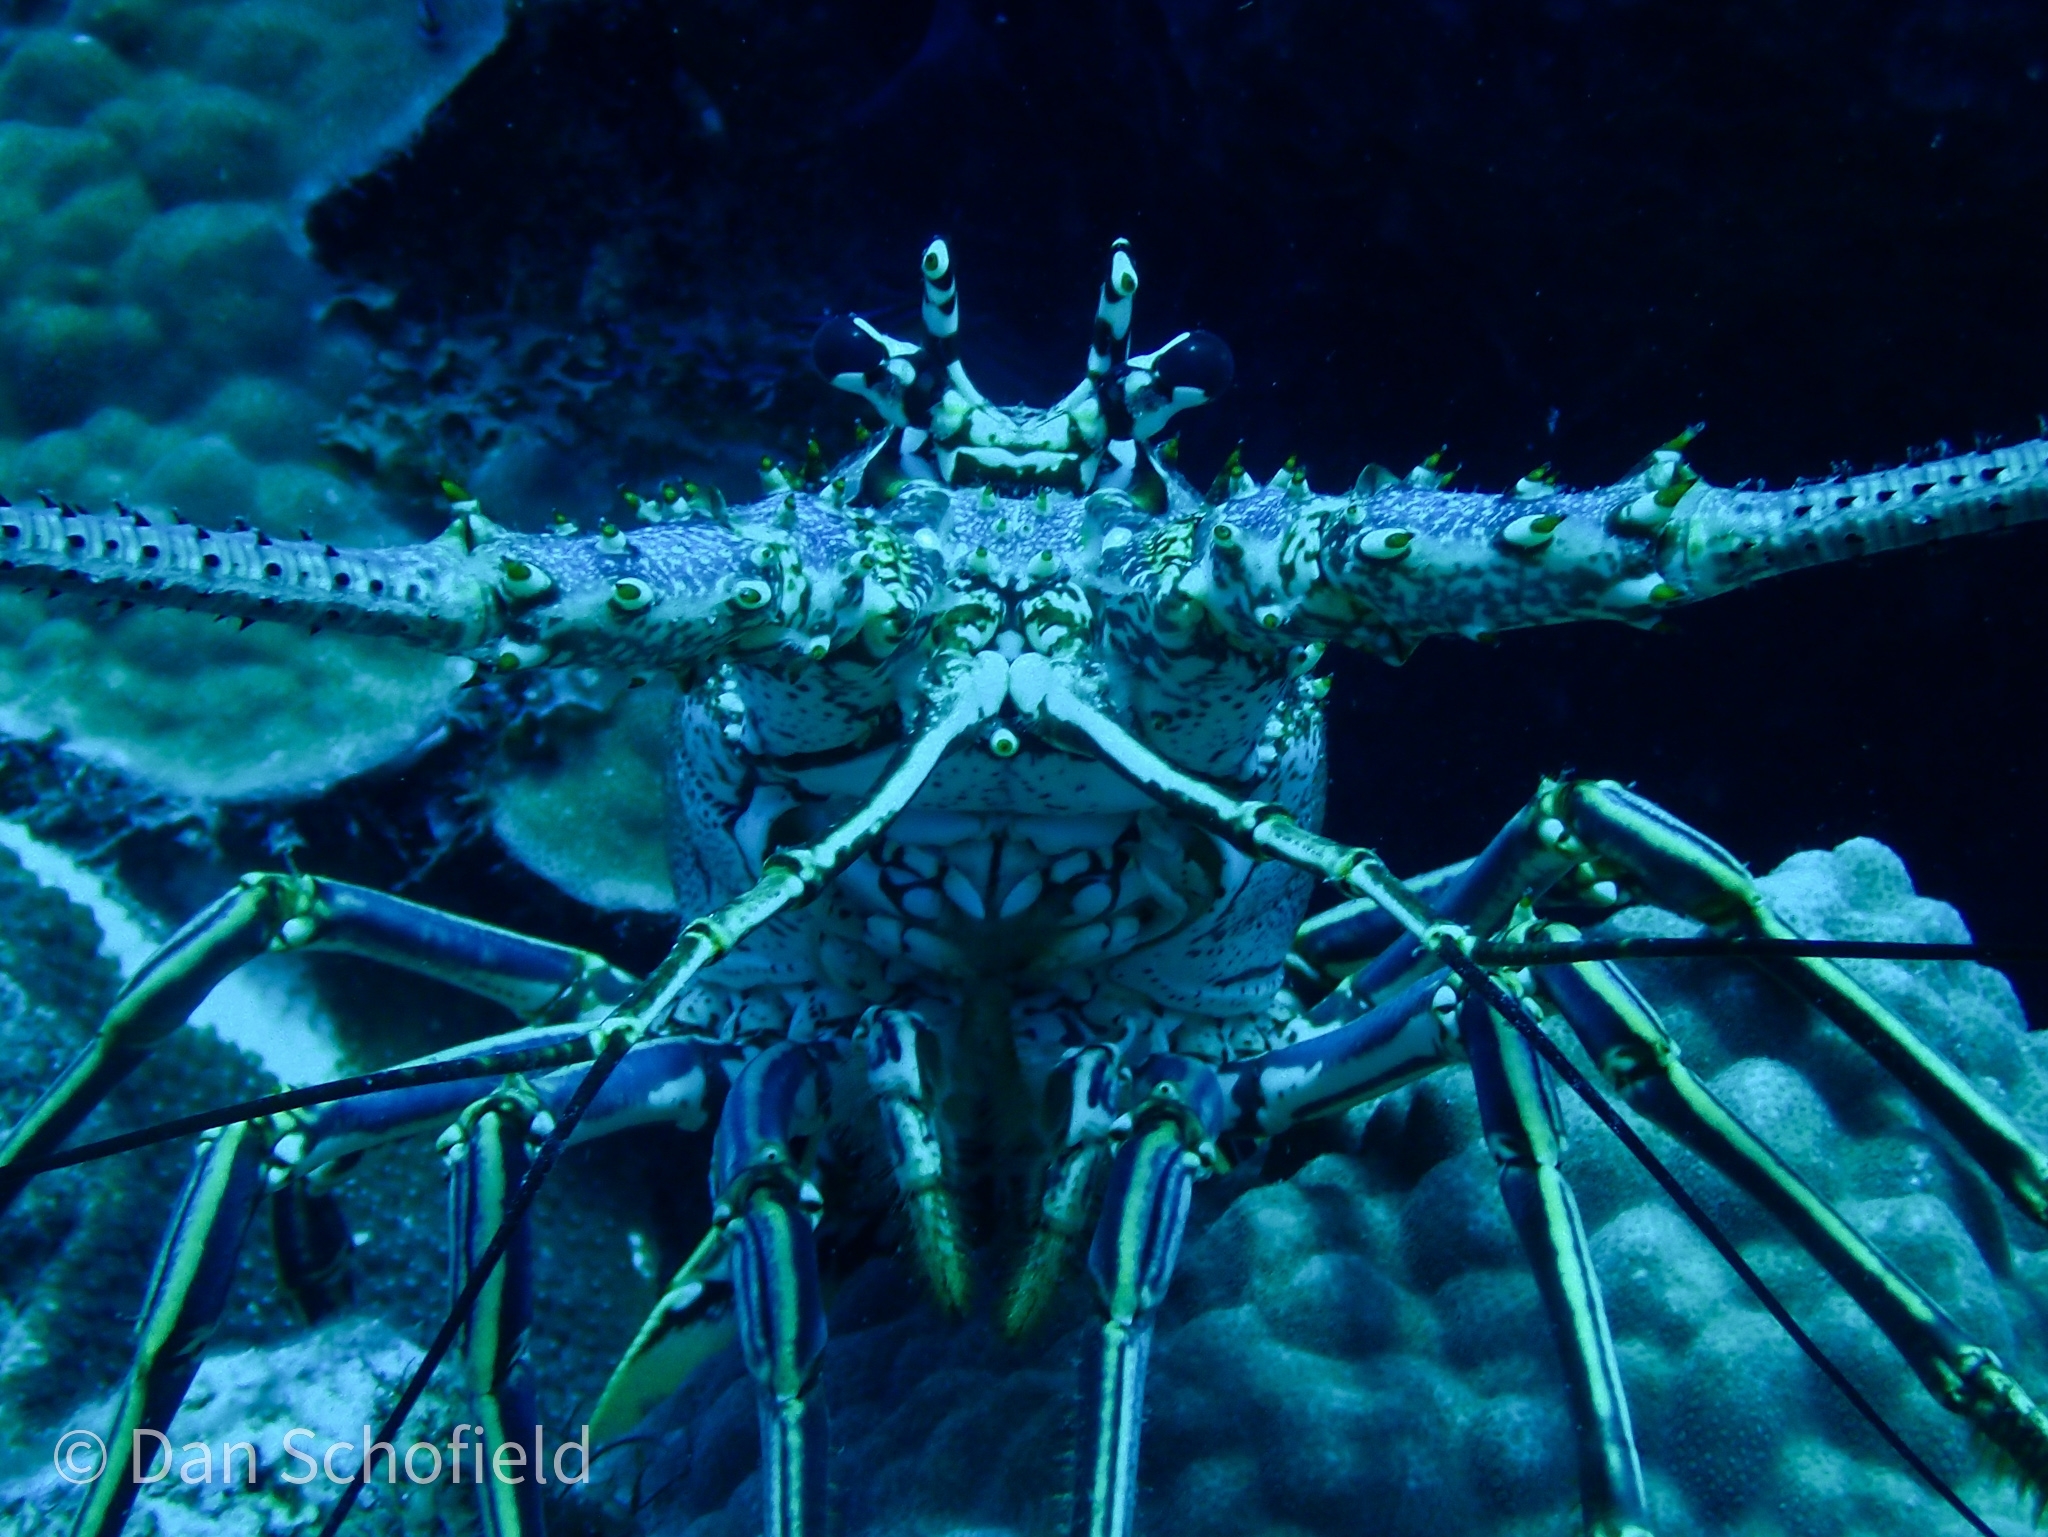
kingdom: Animalia
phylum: Arthropoda
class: Malacostraca
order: Decapoda
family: Palinuridae
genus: Panulirus
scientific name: Panulirus argus
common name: Caribbean spiny lobster
